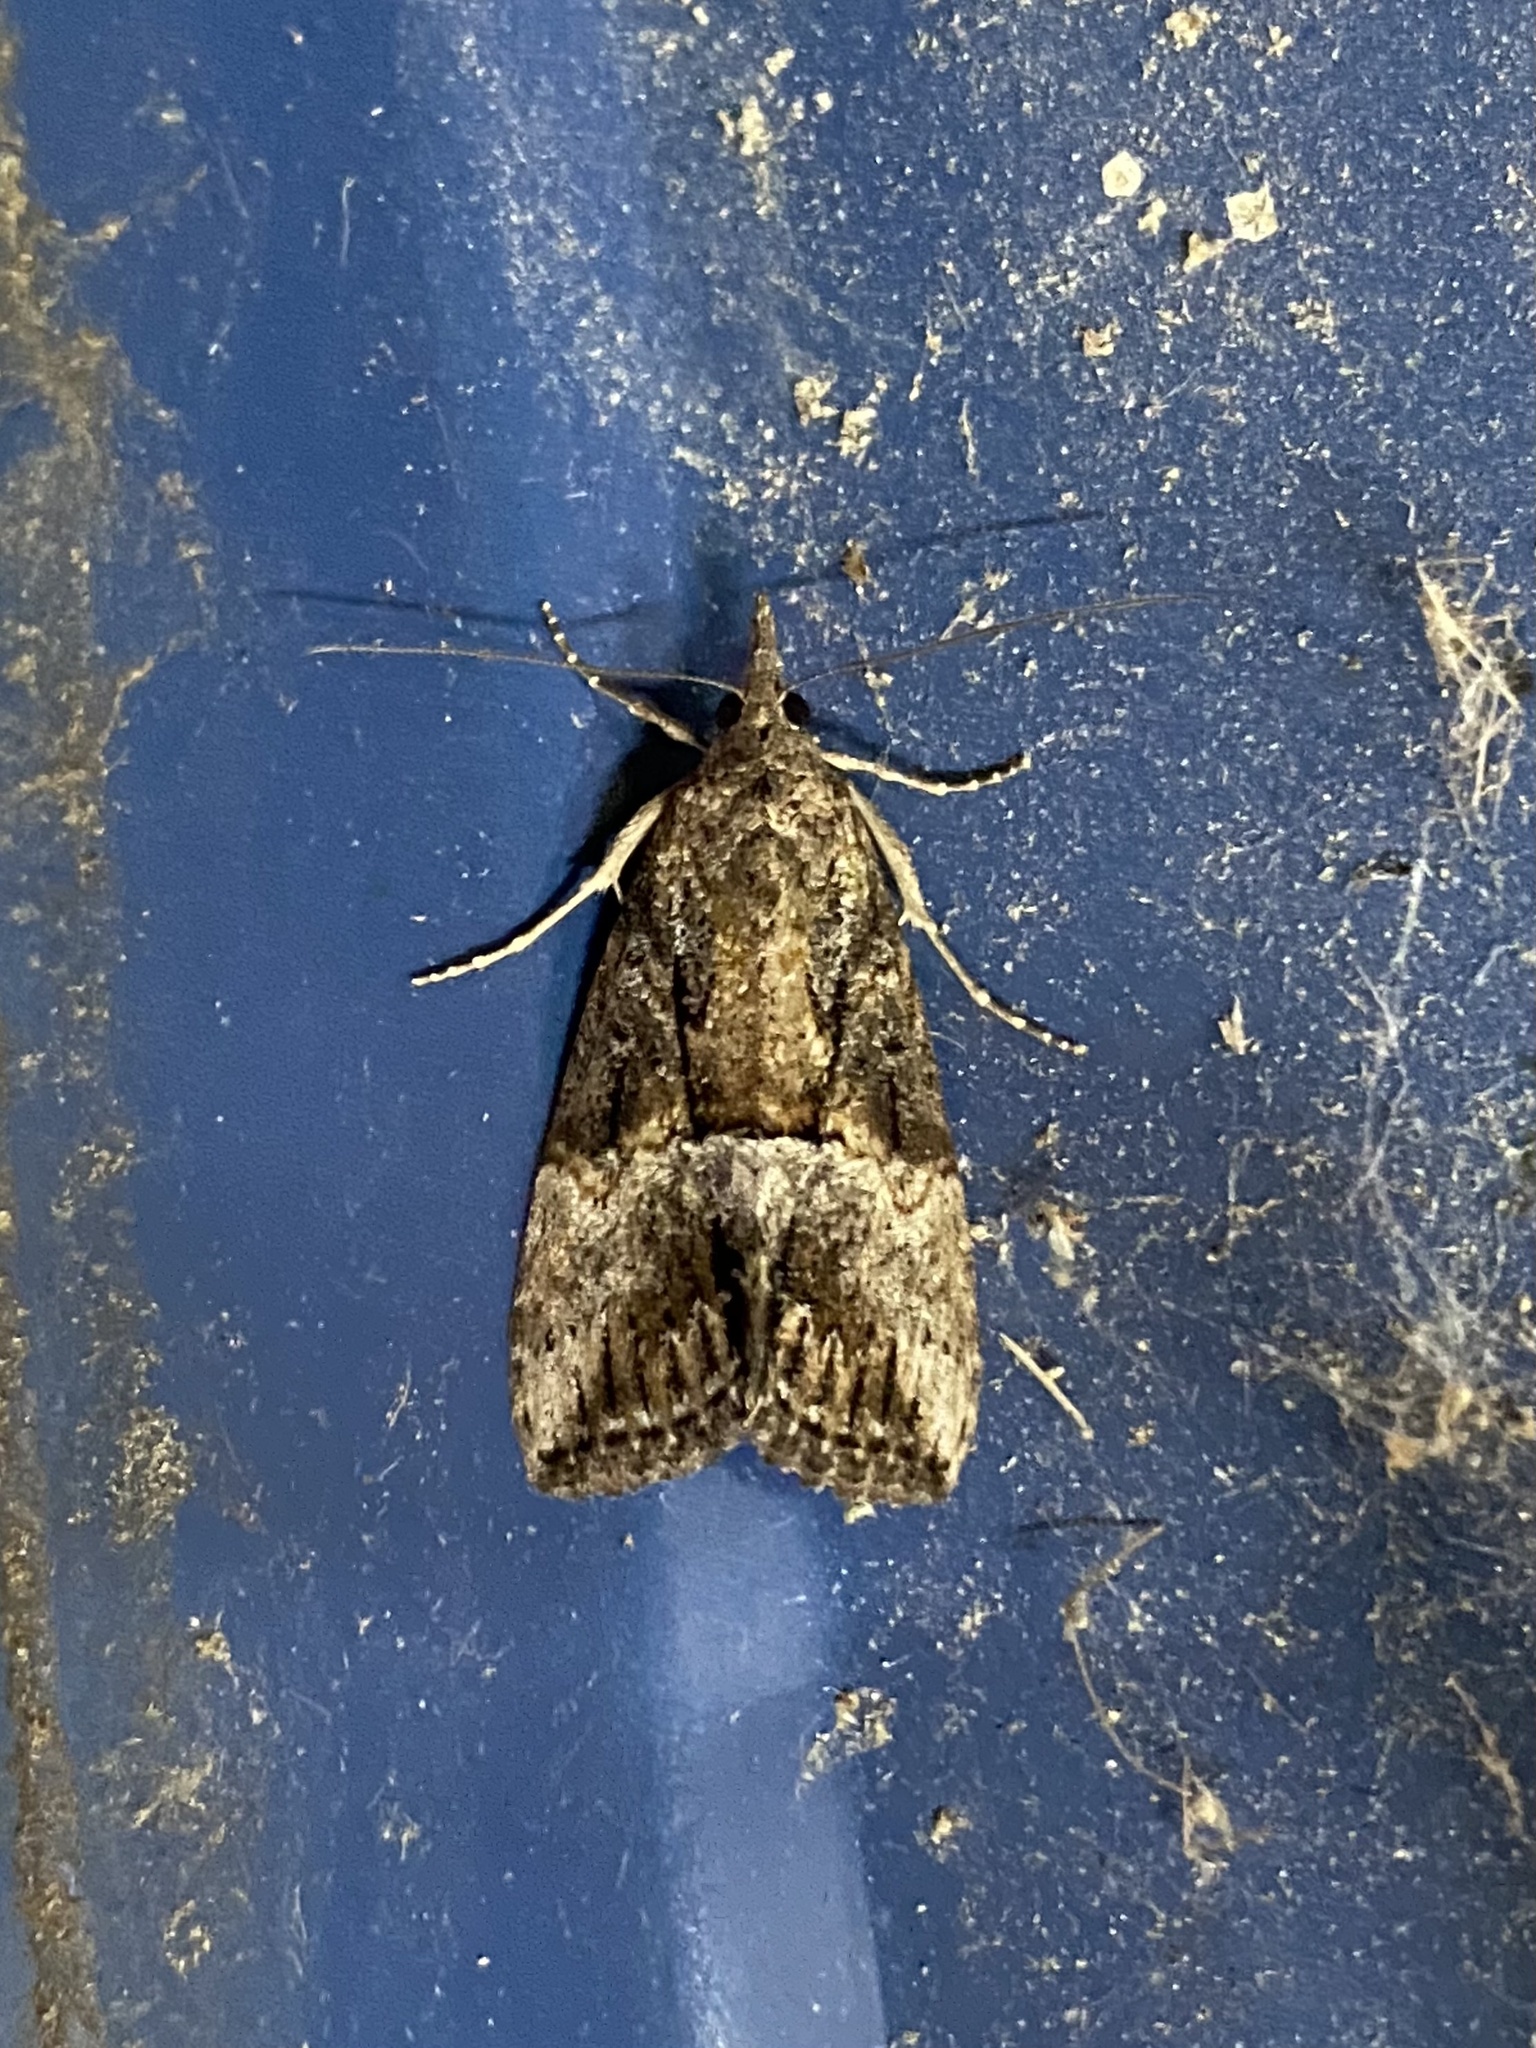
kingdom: Animalia
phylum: Arthropoda
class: Insecta
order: Lepidoptera
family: Erebidae
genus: Hypena
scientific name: Hypena scabra
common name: Green cloverworm
